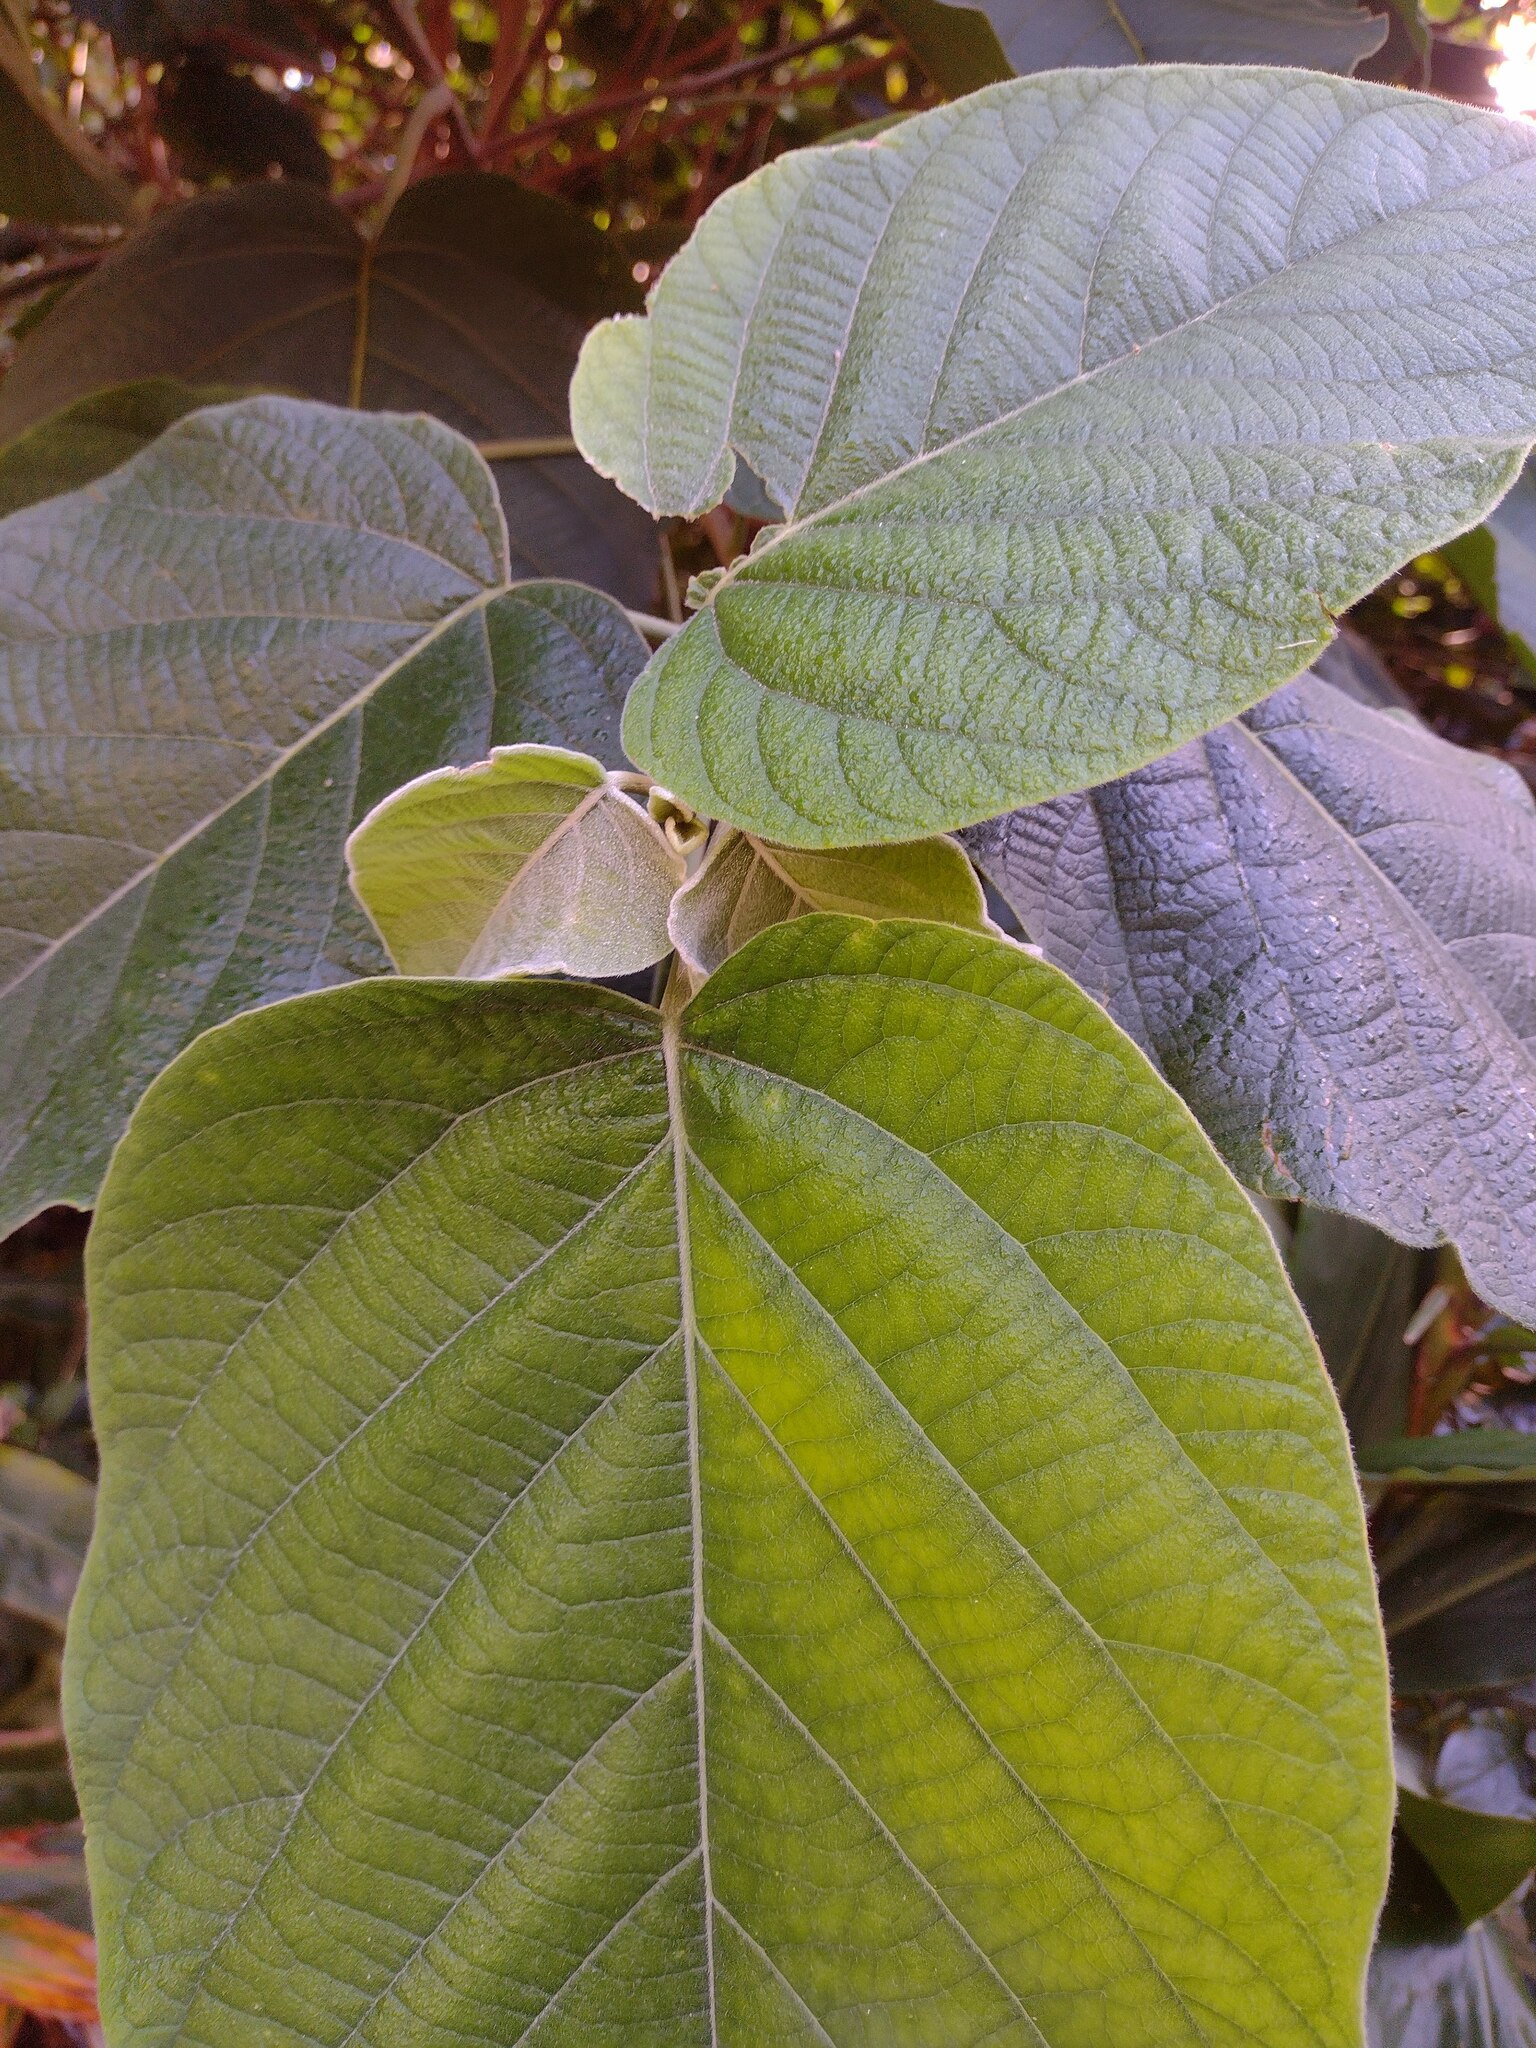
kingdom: Plantae
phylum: Tracheophyta
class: Magnoliopsida
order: Lamiales
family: Lamiaceae
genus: Clerodendrum
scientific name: Clerodendrum macrostegium
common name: Velvetleaf glorybower
